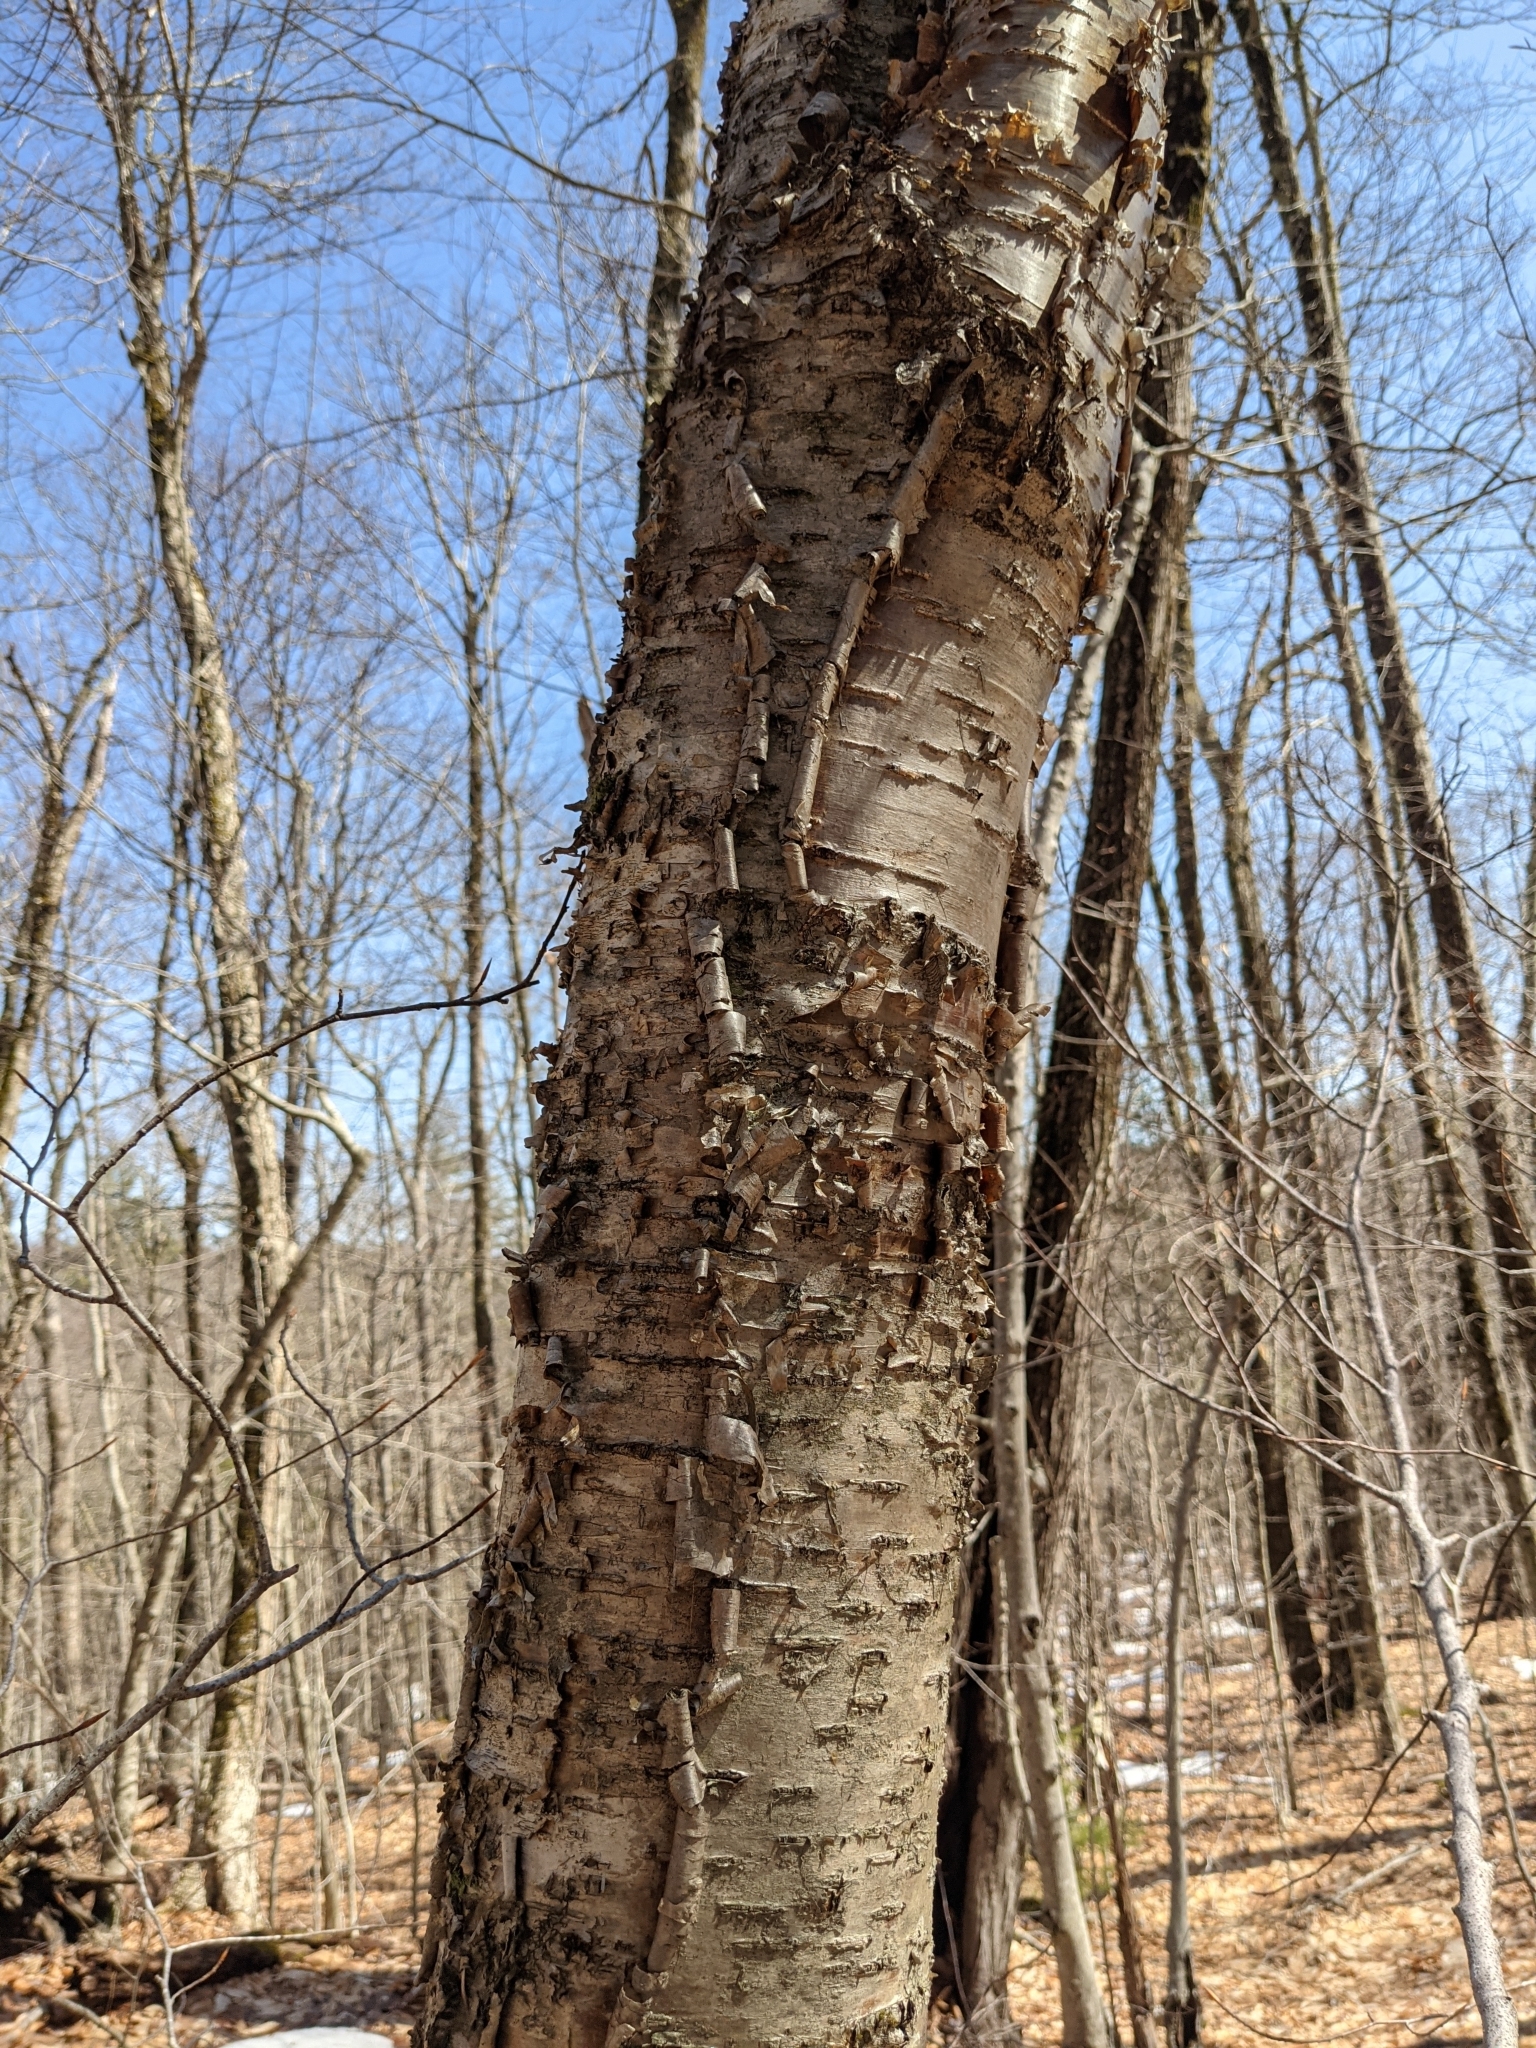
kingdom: Plantae
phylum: Tracheophyta
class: Magnoliopsida
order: Fagales
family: Betulaceae
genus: Betula
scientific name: Betula alleghaniensis
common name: Yellow birch
